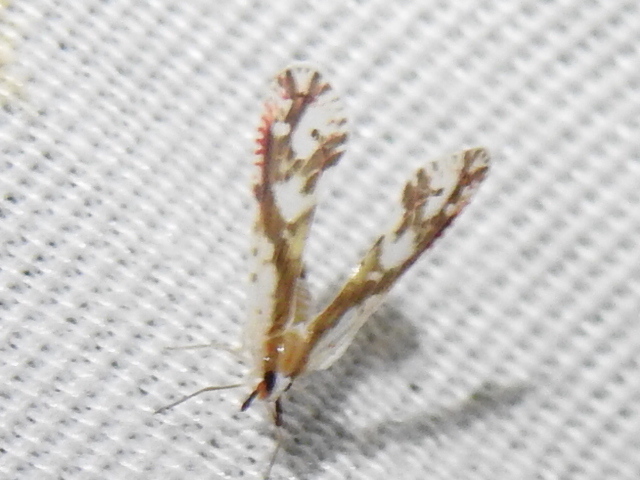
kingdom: Animalia
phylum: Arthropoda
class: Insecta
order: Hemiptera
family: Derbidae
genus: Anotia
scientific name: Anotia fitchi
